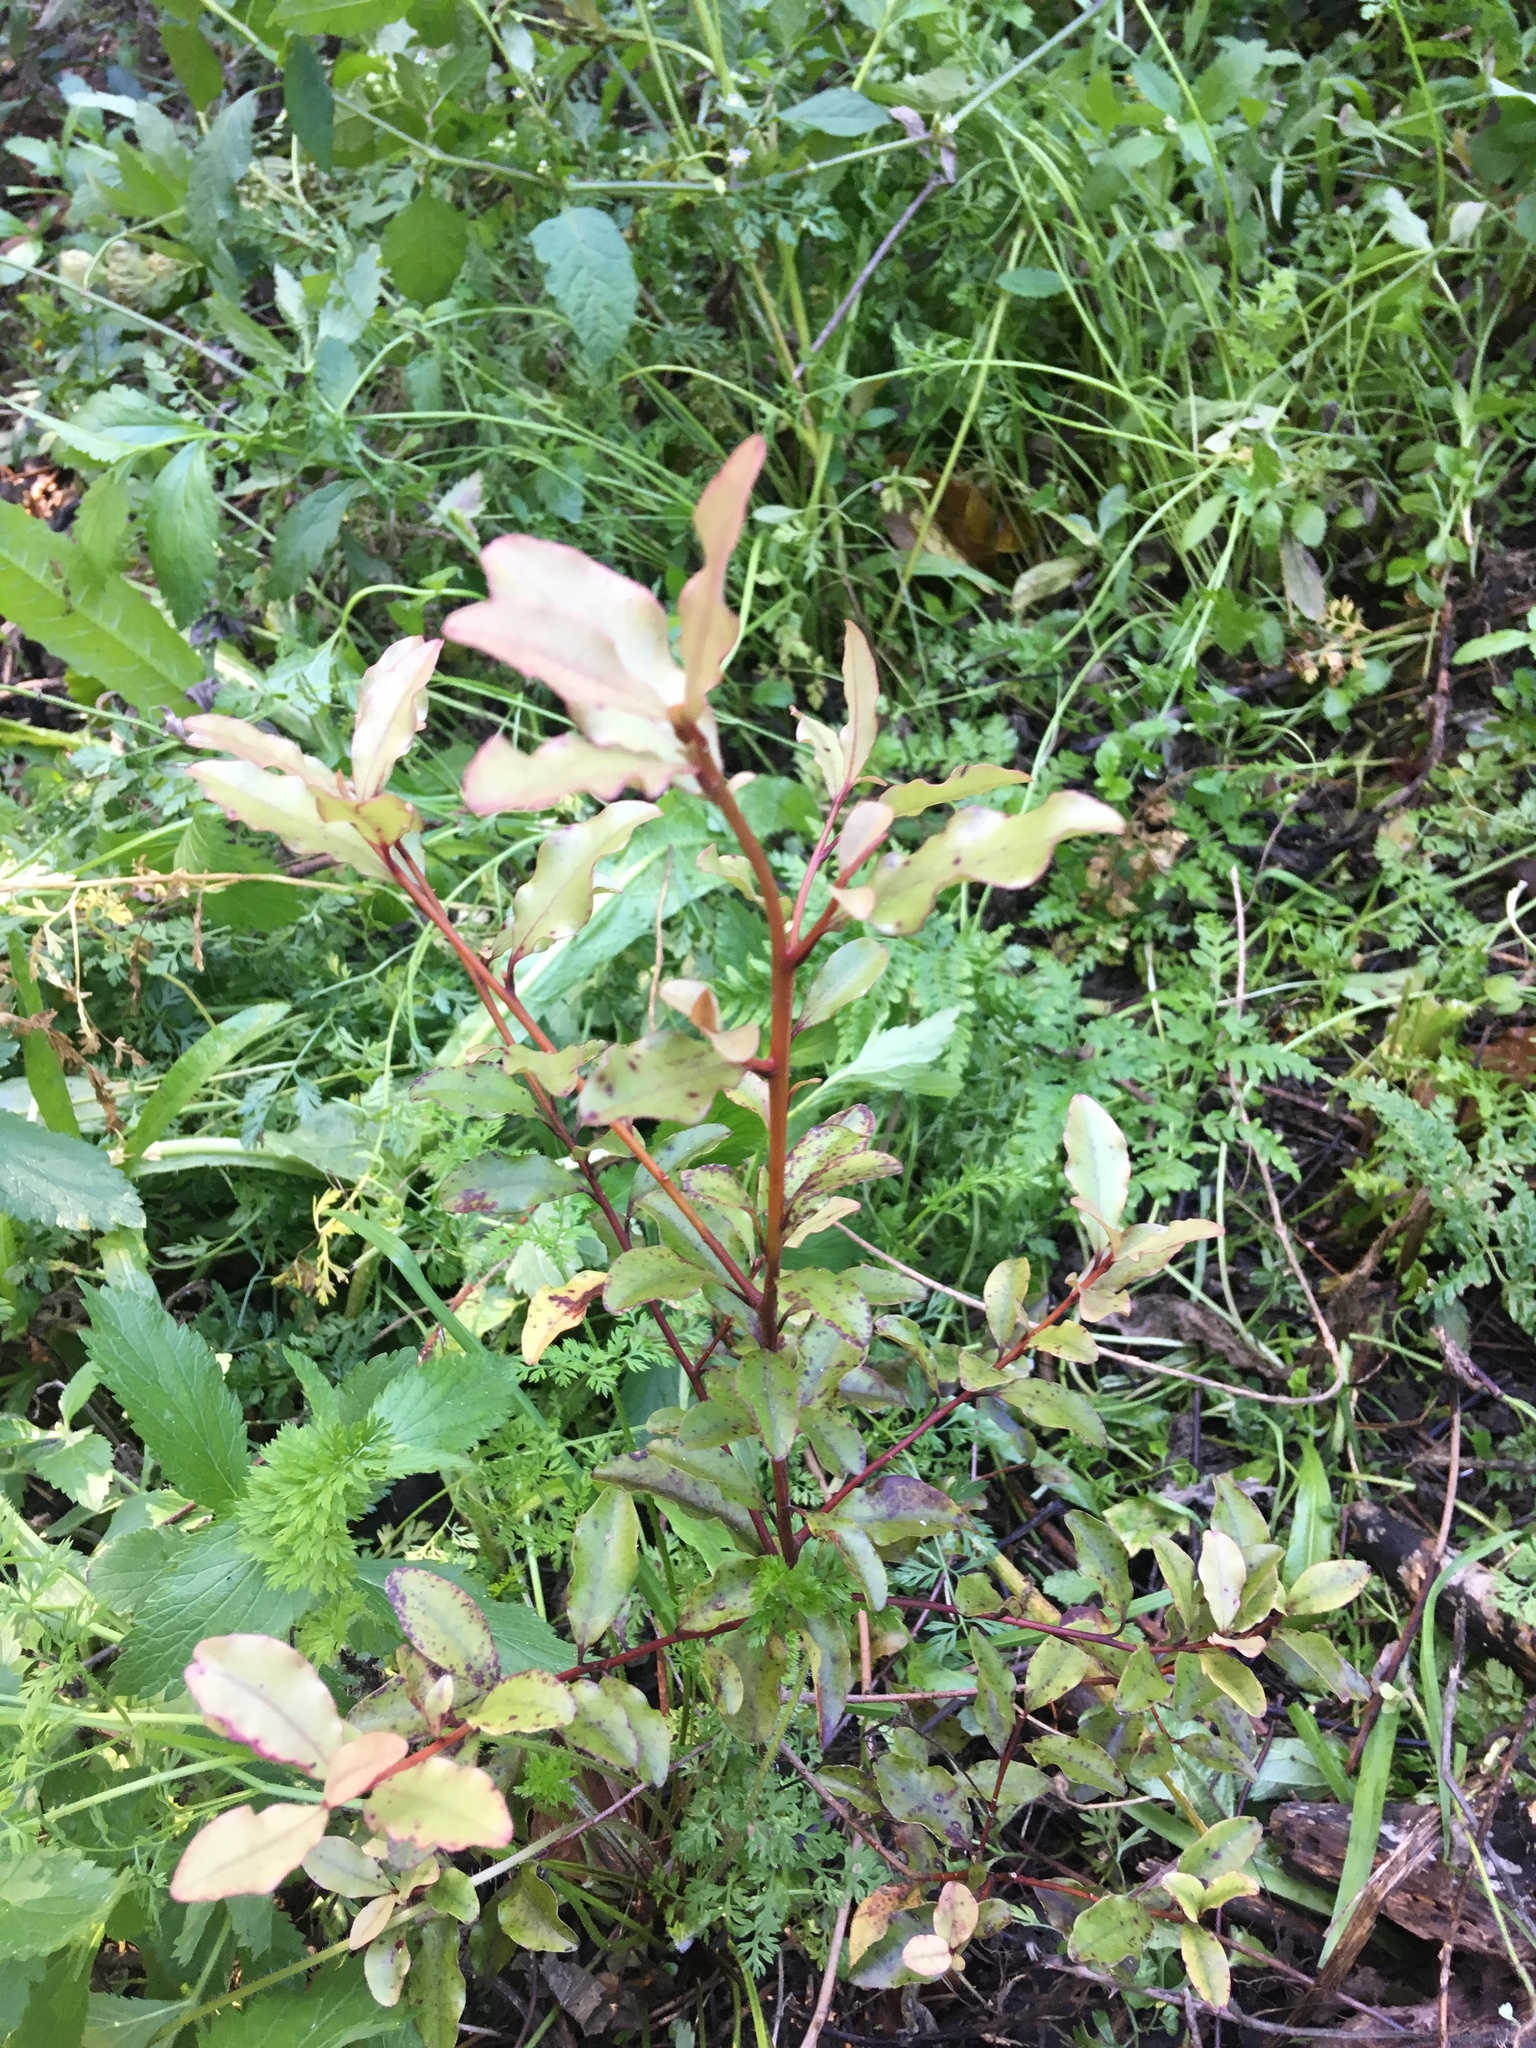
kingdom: Plantae
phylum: Tracheophyta
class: Magnoliopsida
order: Ericales
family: Primulaceae
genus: Myrsine
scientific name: Myrsine australis
